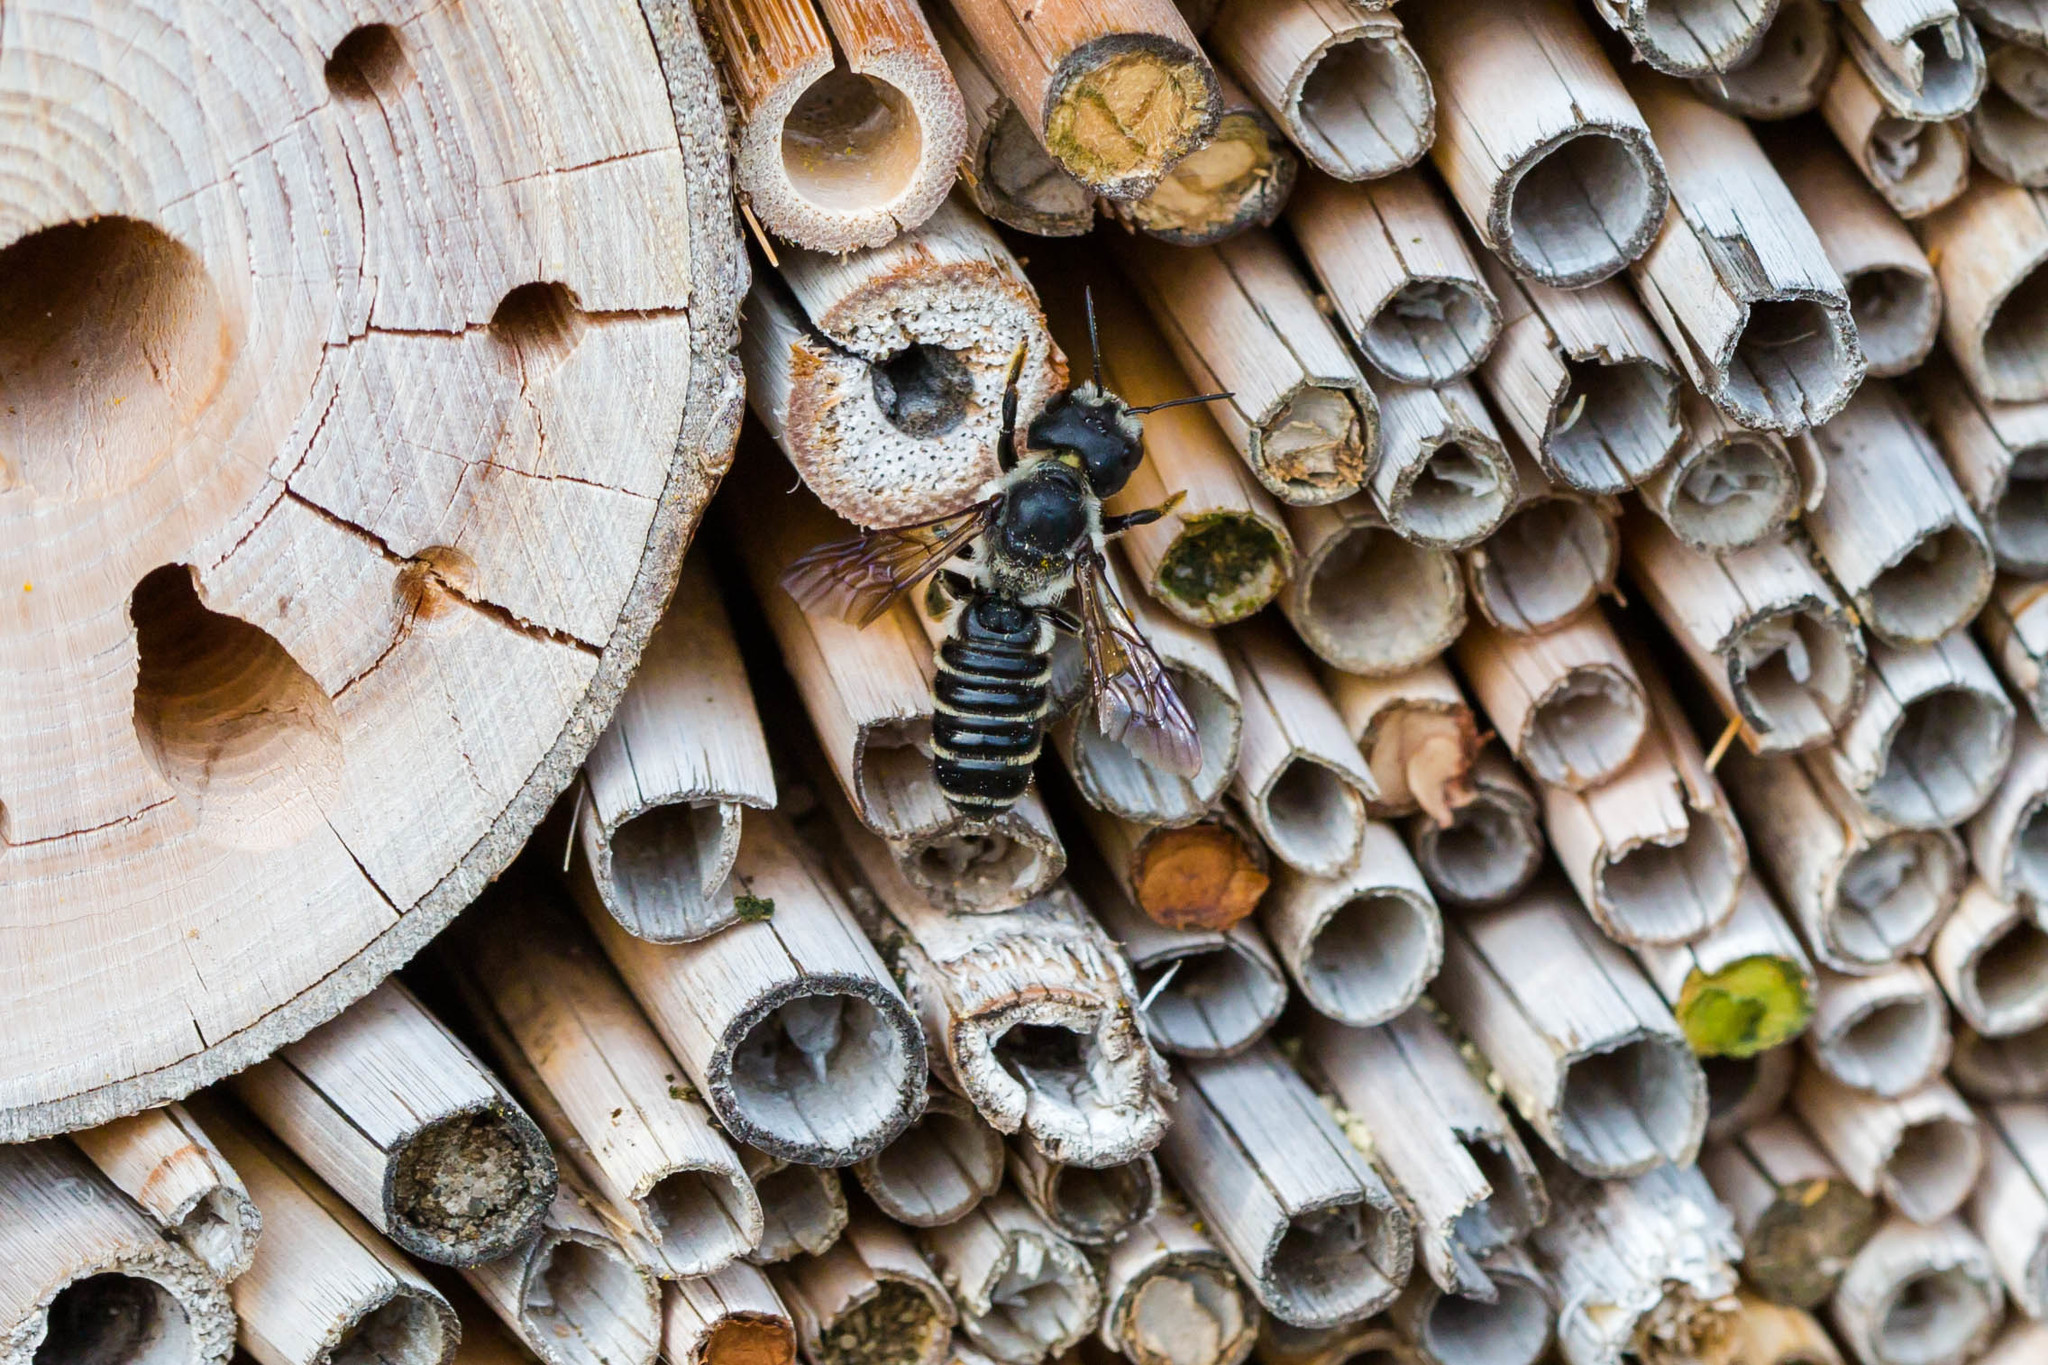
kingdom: Animalia
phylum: Arthropoda
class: Insecta
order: Hymenoptera
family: Megachilidae
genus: Megachile
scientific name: Megachile pugnata
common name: Pugnacious leafcutter bee
